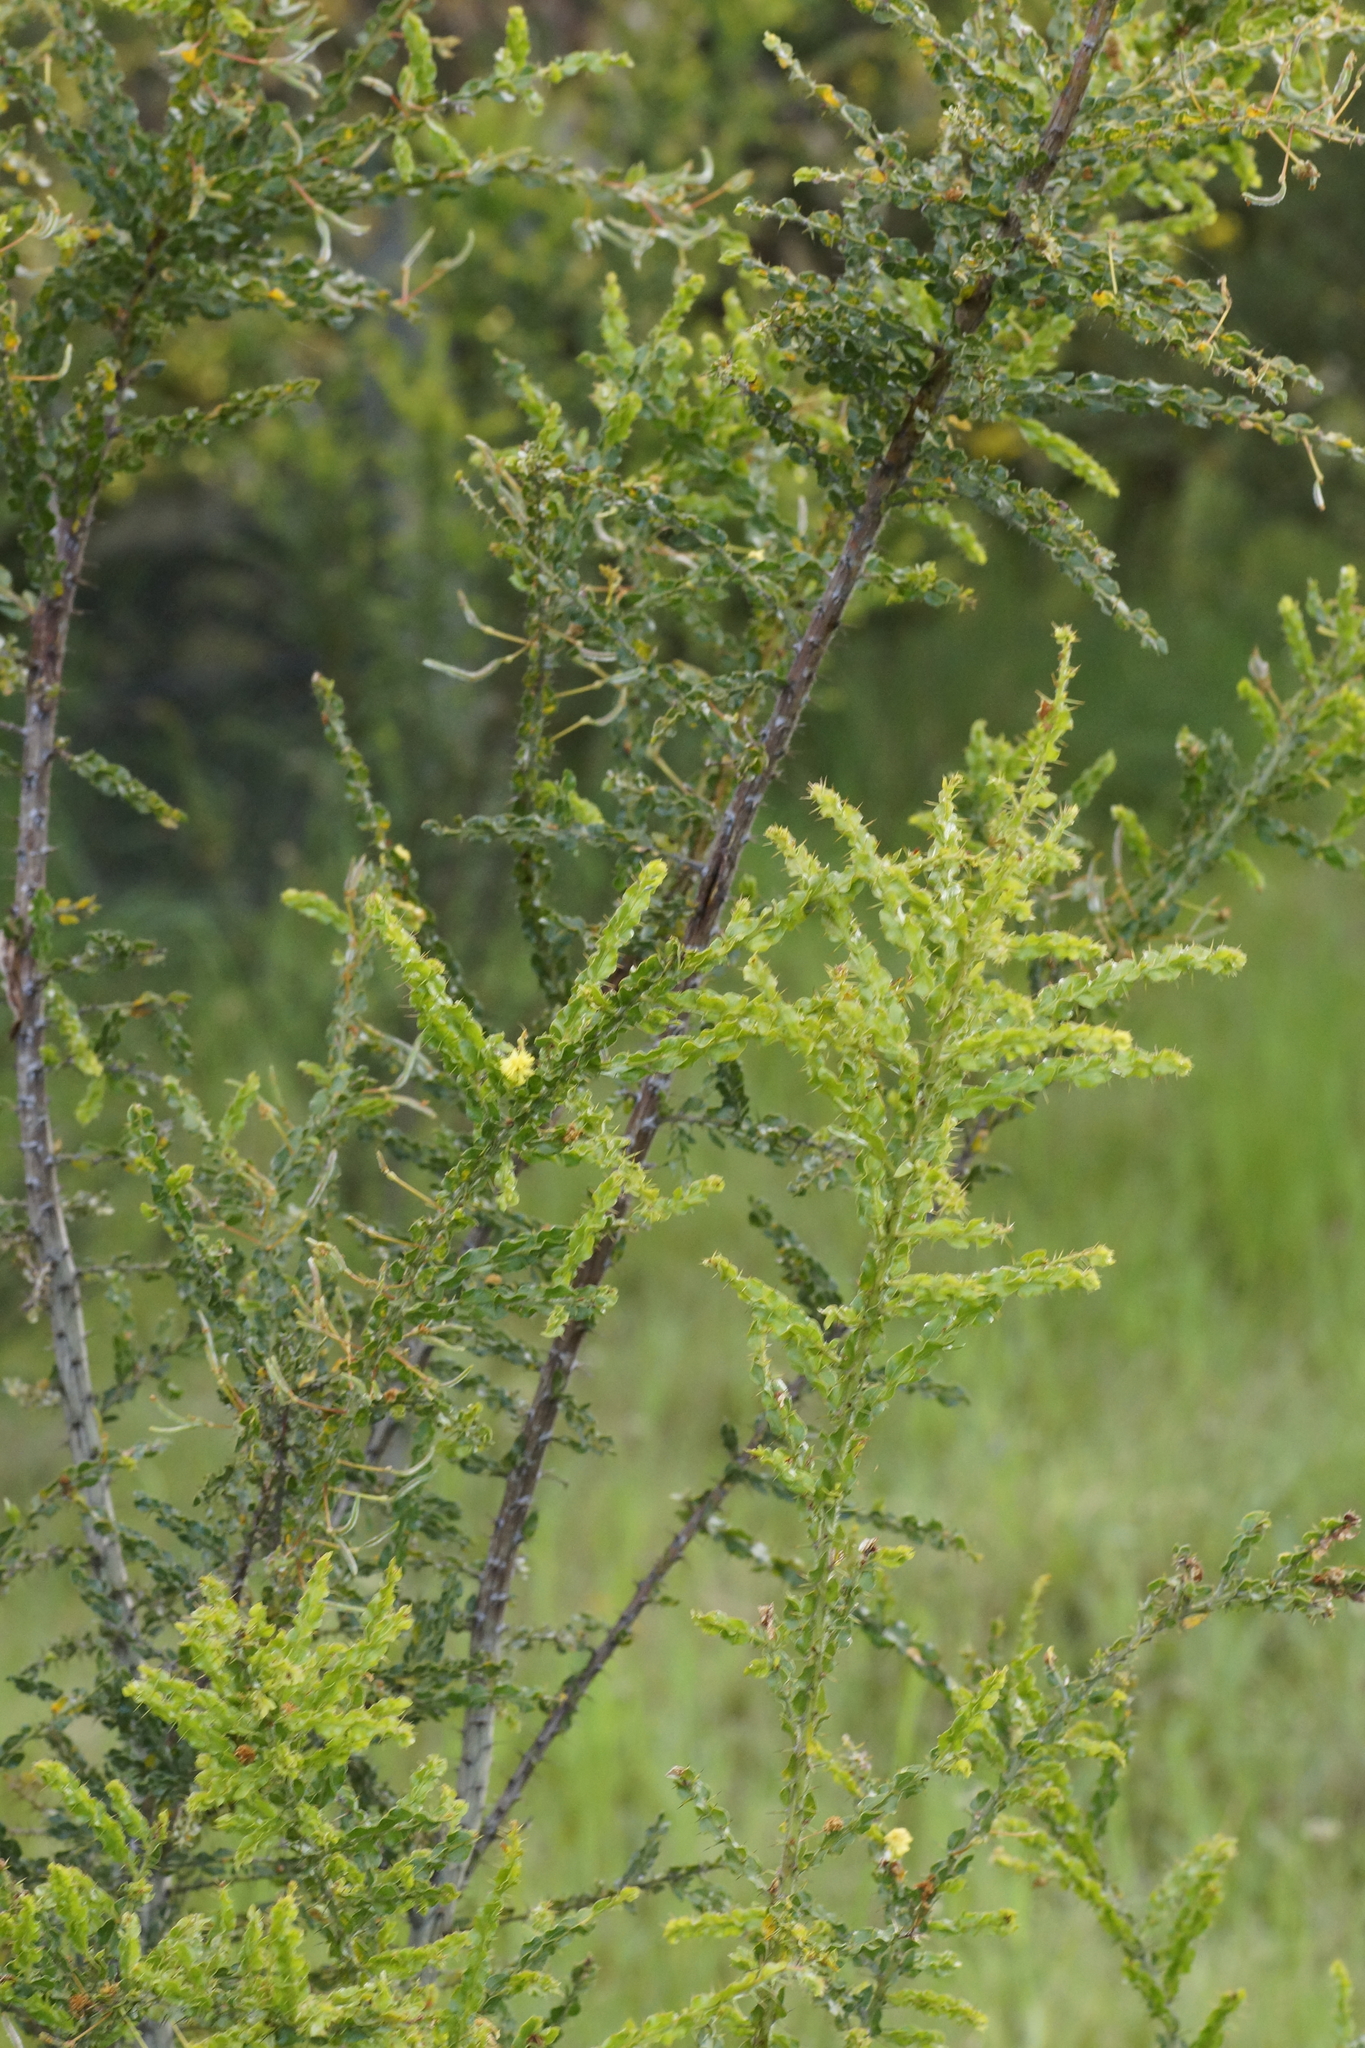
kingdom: Plantae
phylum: Tracheophyta
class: Magnoliopsida
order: Fabales
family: Fabaceae
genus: Acacia
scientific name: Acacia paradoxa
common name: Paradox acacia
